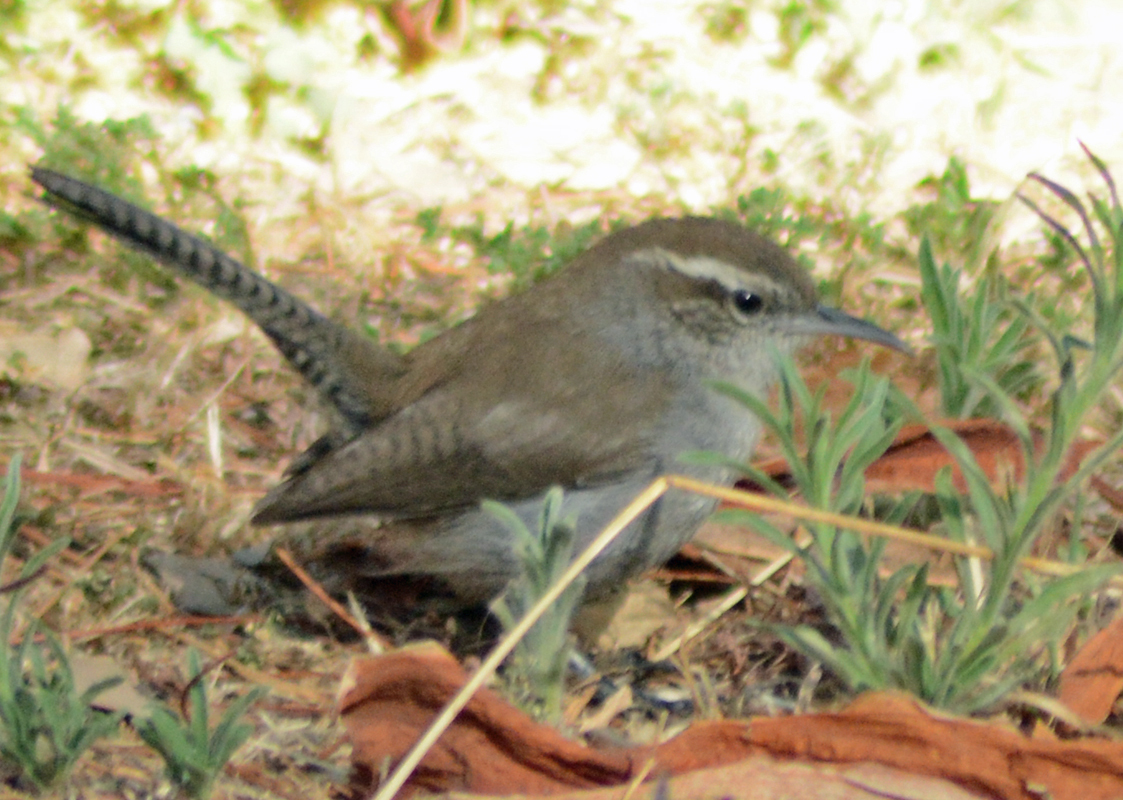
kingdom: Animalia
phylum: Chordata
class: Aves
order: Passeriformes
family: Troglodytidae
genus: Thryomanes
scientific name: Thryomanes bewickii
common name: Bewick's wren
